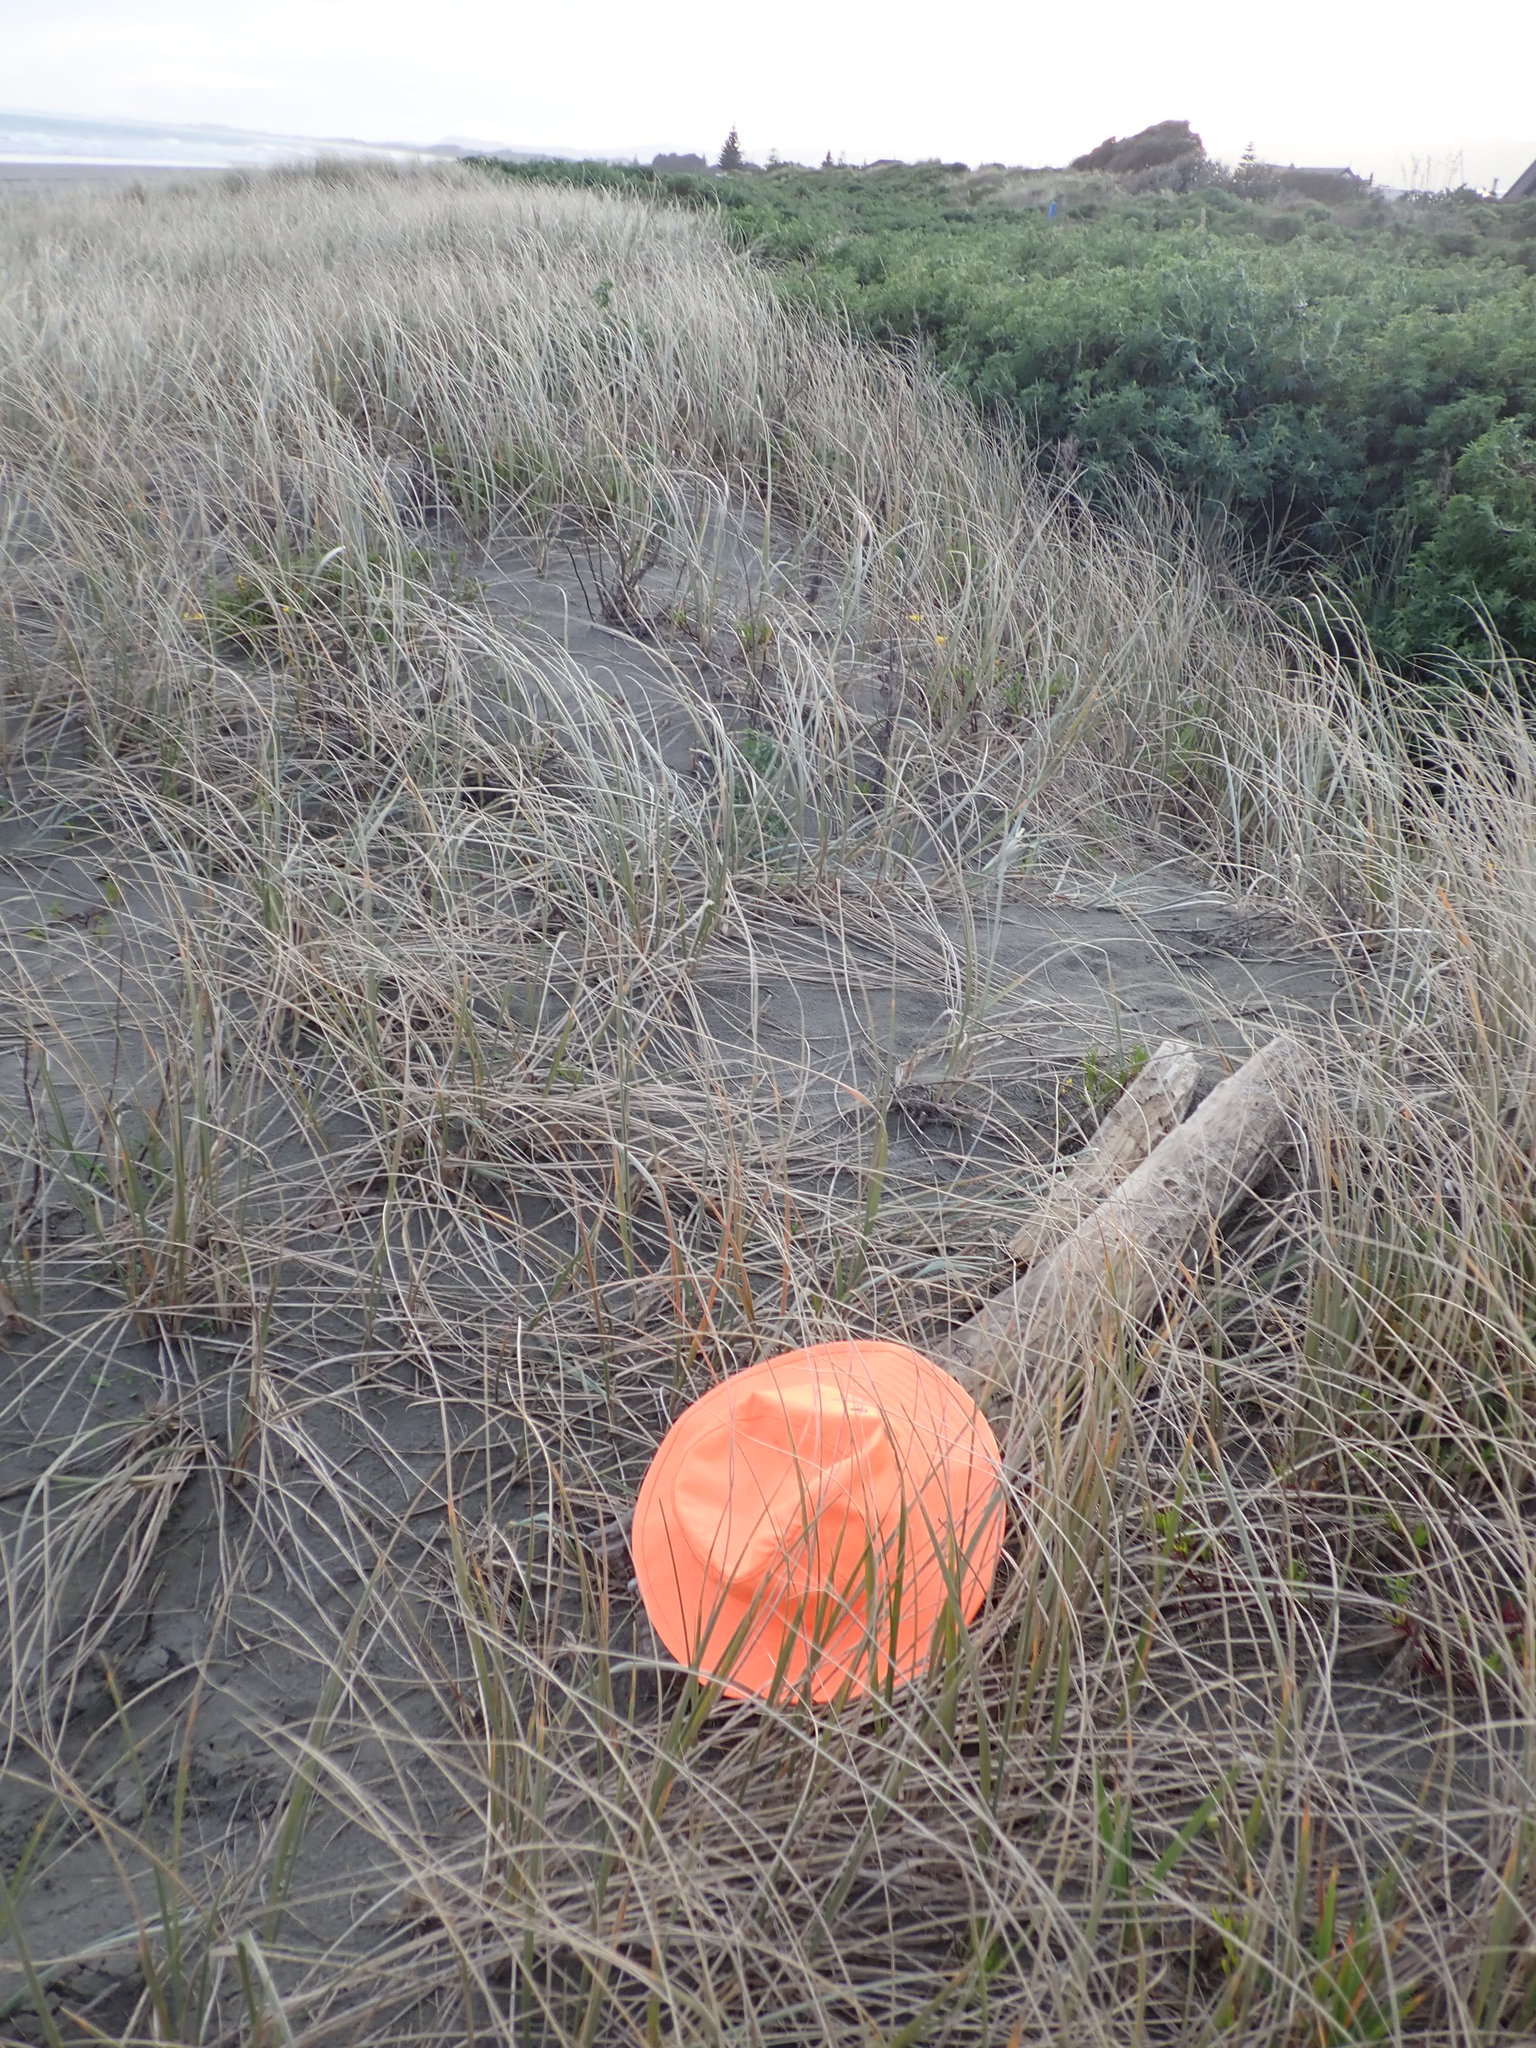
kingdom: Animalia
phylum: Mollusca
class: Gastropoda
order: Stylommatophora
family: Geomitridae
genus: Xeroplexa
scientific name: Xeroplexa intersecta
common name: Wrinkled snail
